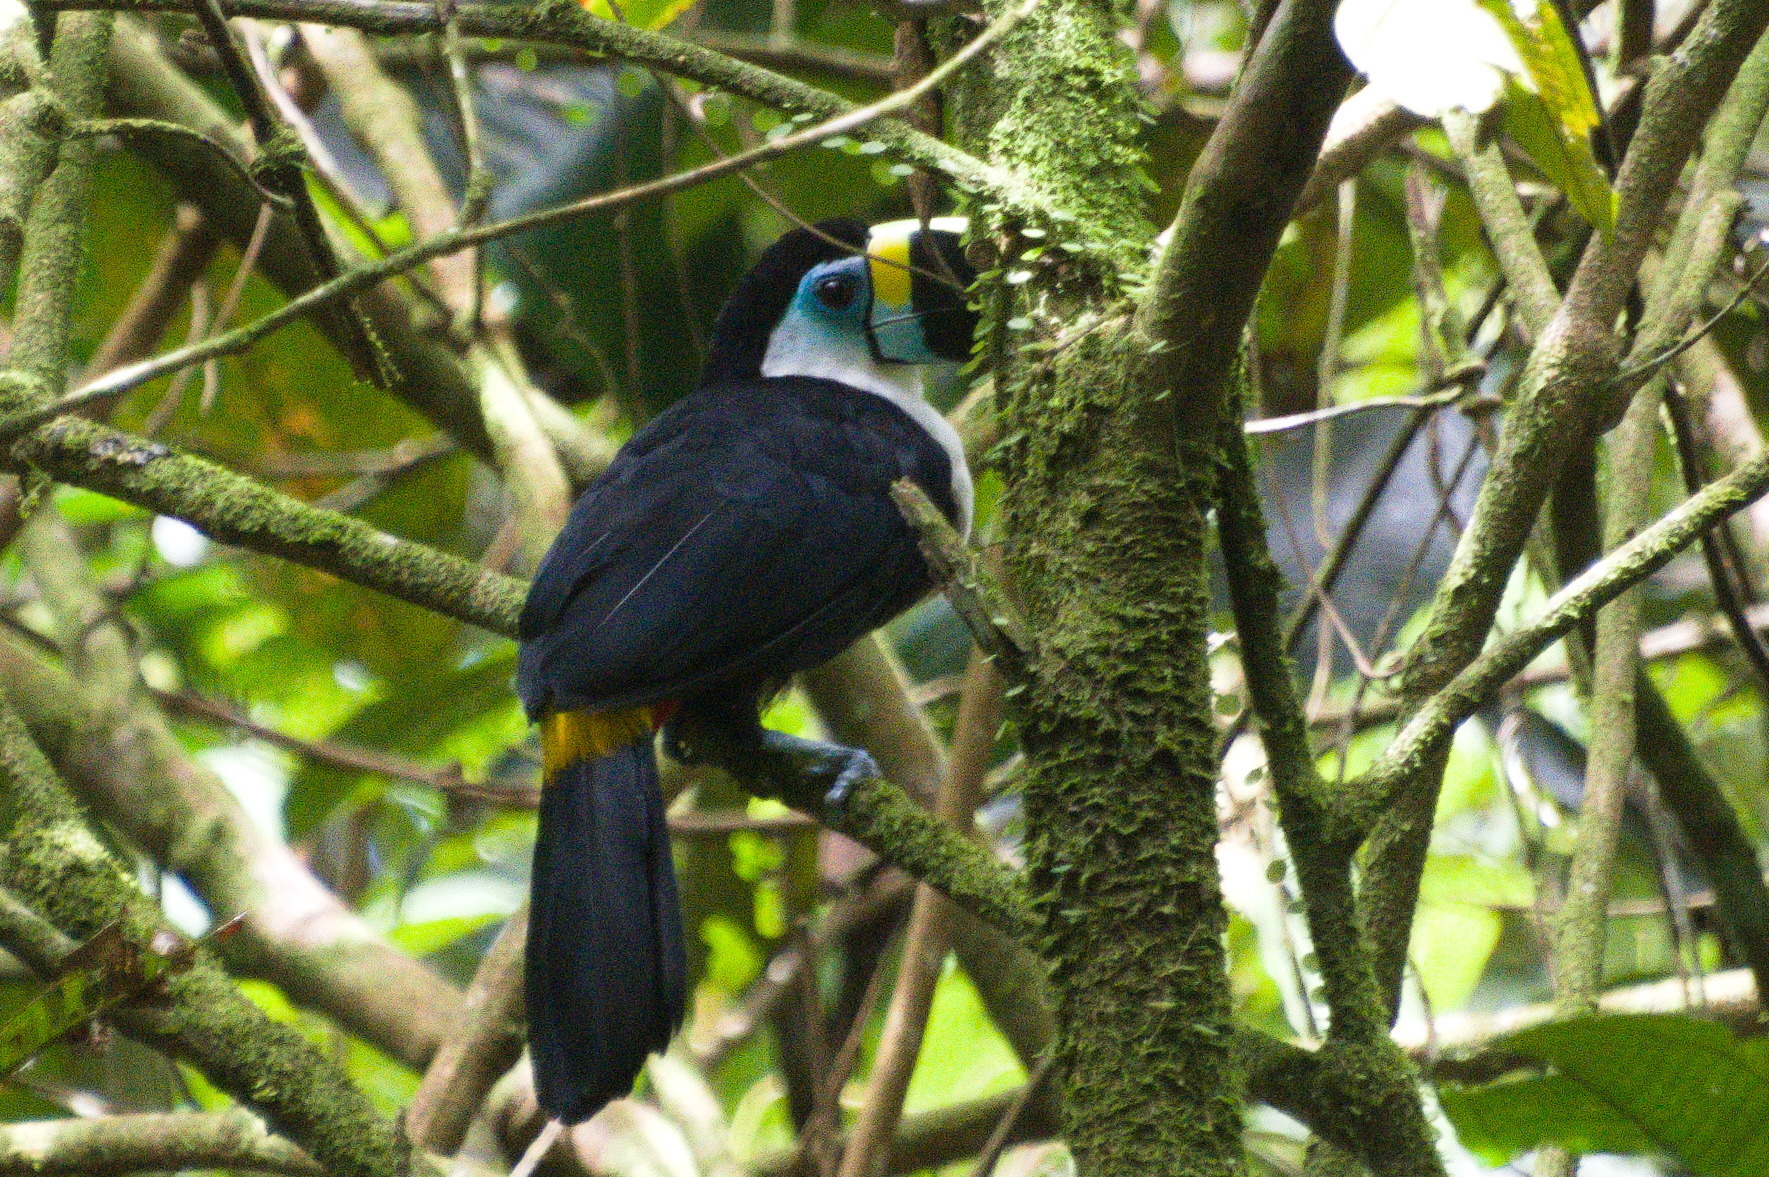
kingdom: Animalia
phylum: Chordata
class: Aves
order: Piciformes
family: Ramphastidae
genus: Ramphastos
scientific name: Ramphastos vitellinus
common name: Channel-billed toucan
